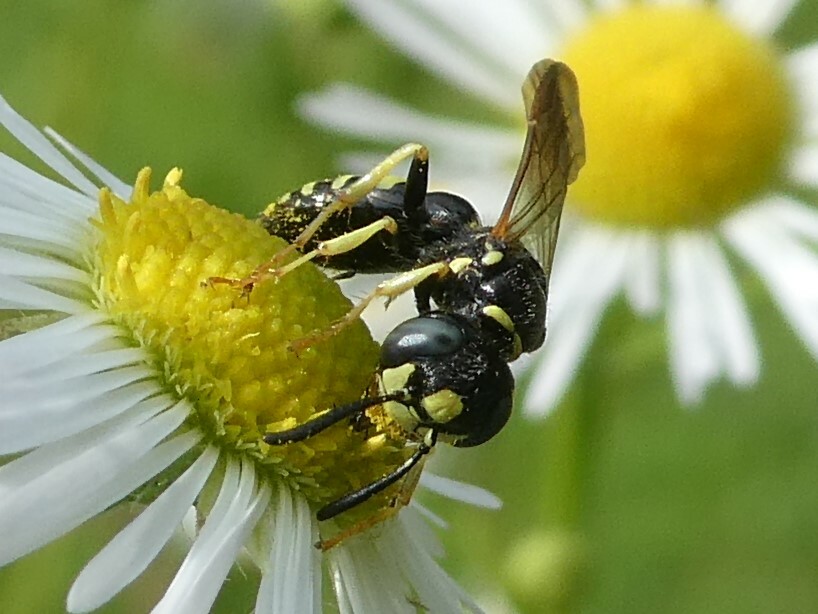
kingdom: Animalia
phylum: Arthropoda
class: Insecta
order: Hymenoptera
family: Crabronidae
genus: Philanthus
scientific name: Philanthus bilunatus
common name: Two moons beewolf
